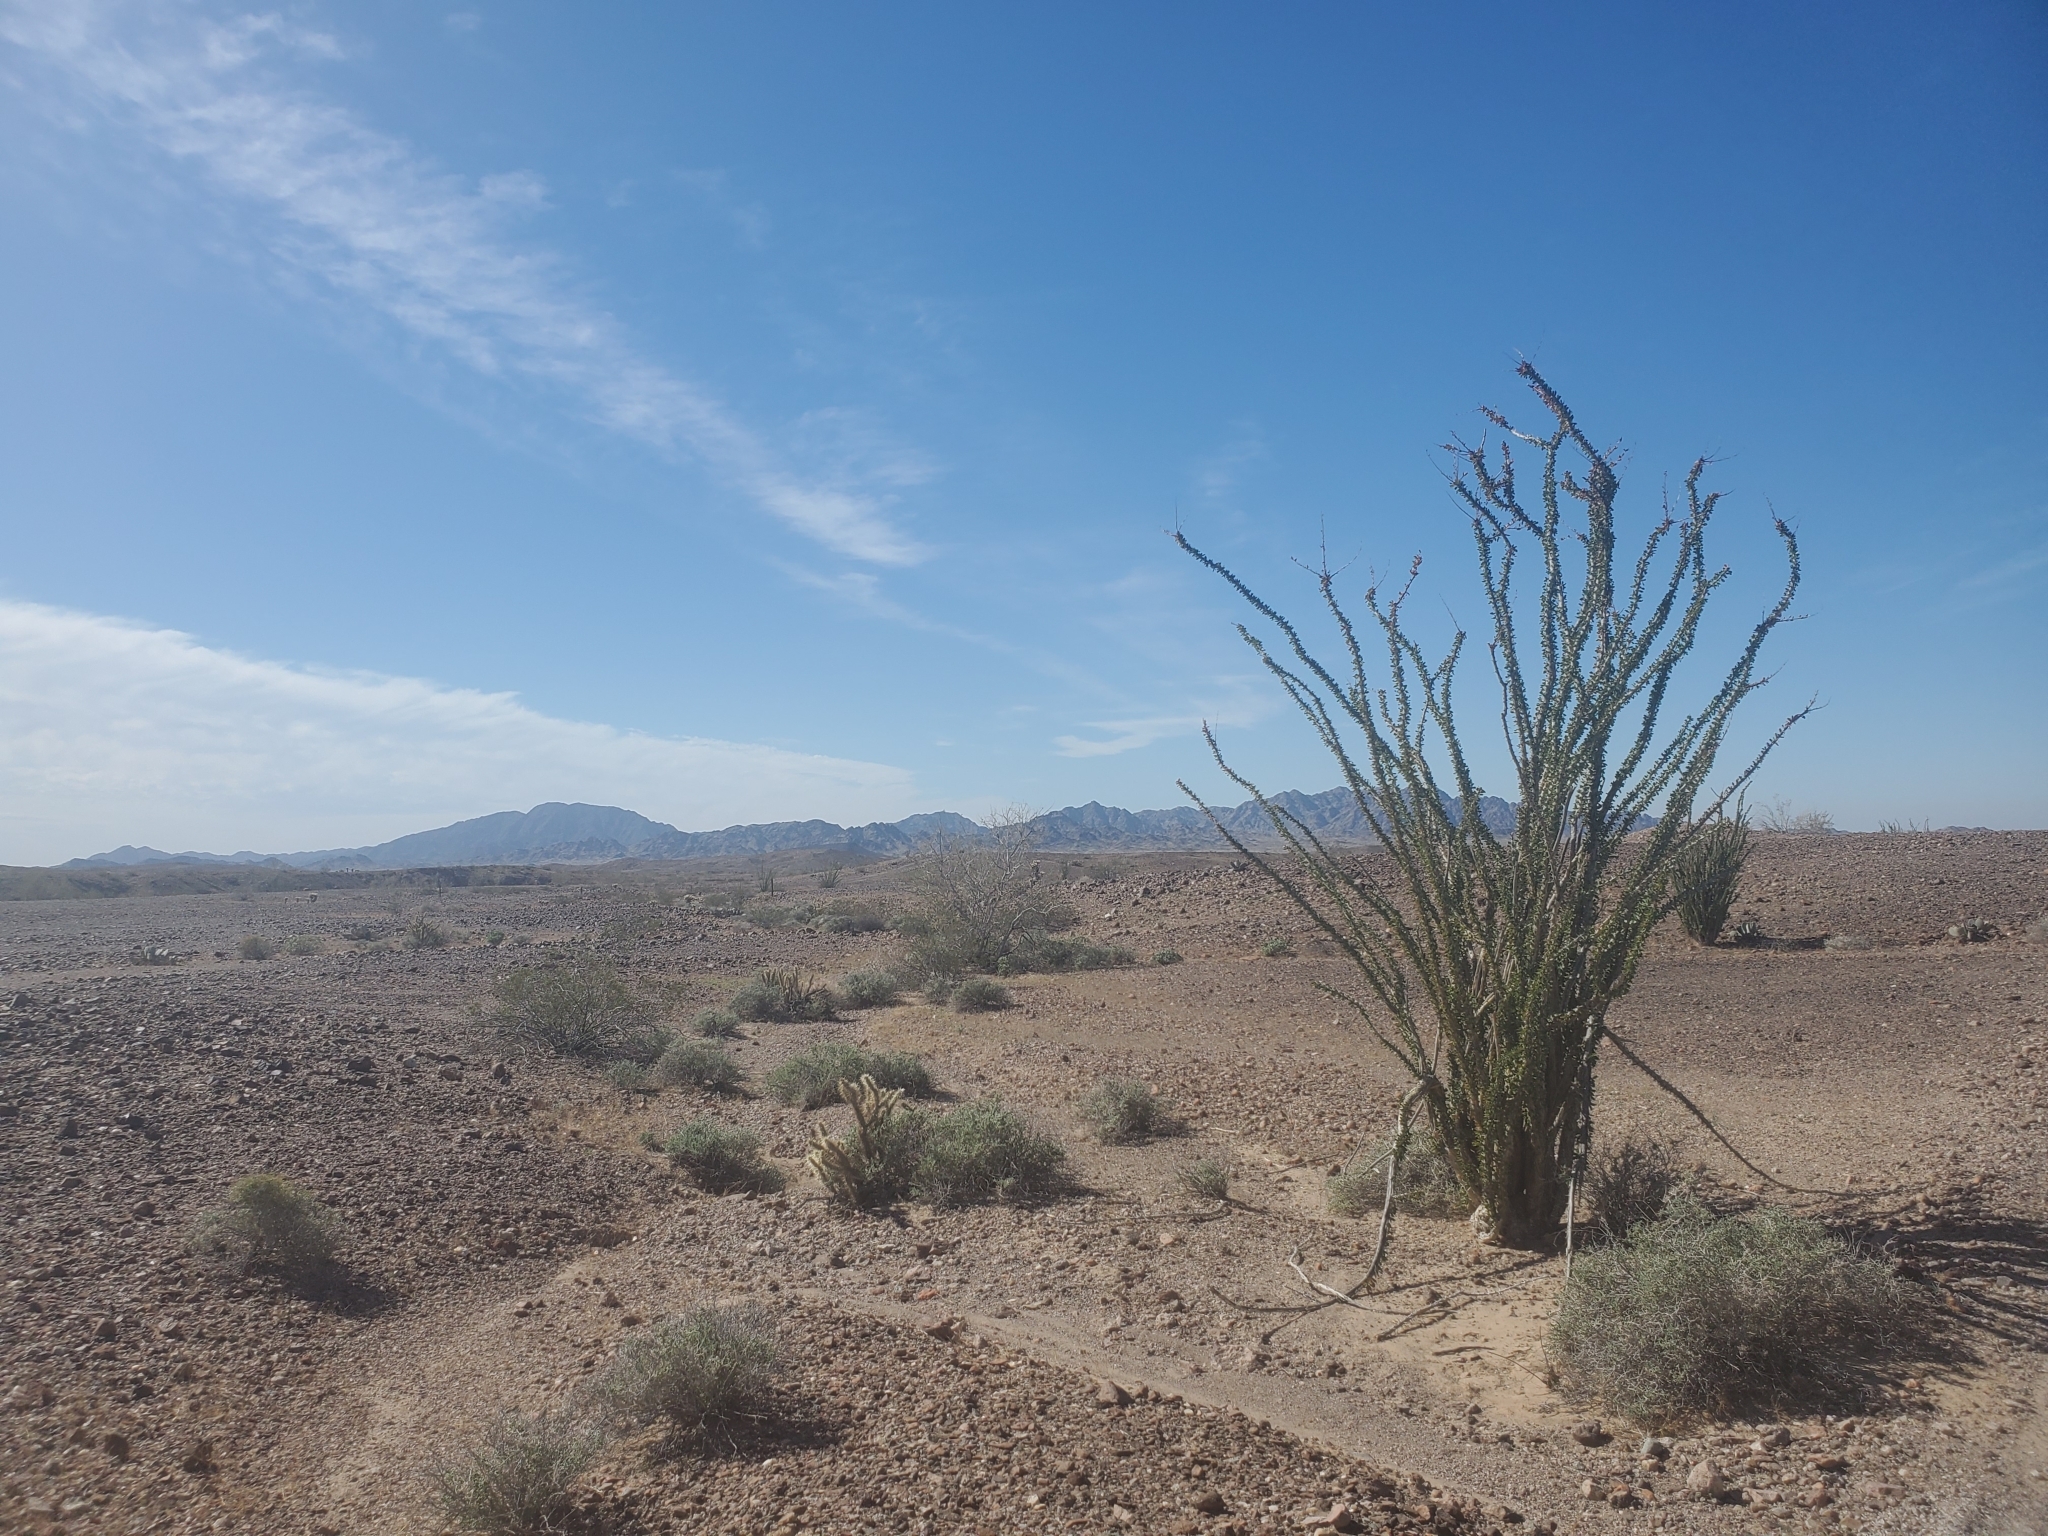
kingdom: Plantae
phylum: Tracheophyta
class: Magnoliopsida
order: Ericales
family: Fouquieriaceae
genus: Fouquieria
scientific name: Fouquieria splendens
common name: Vine-cactus
